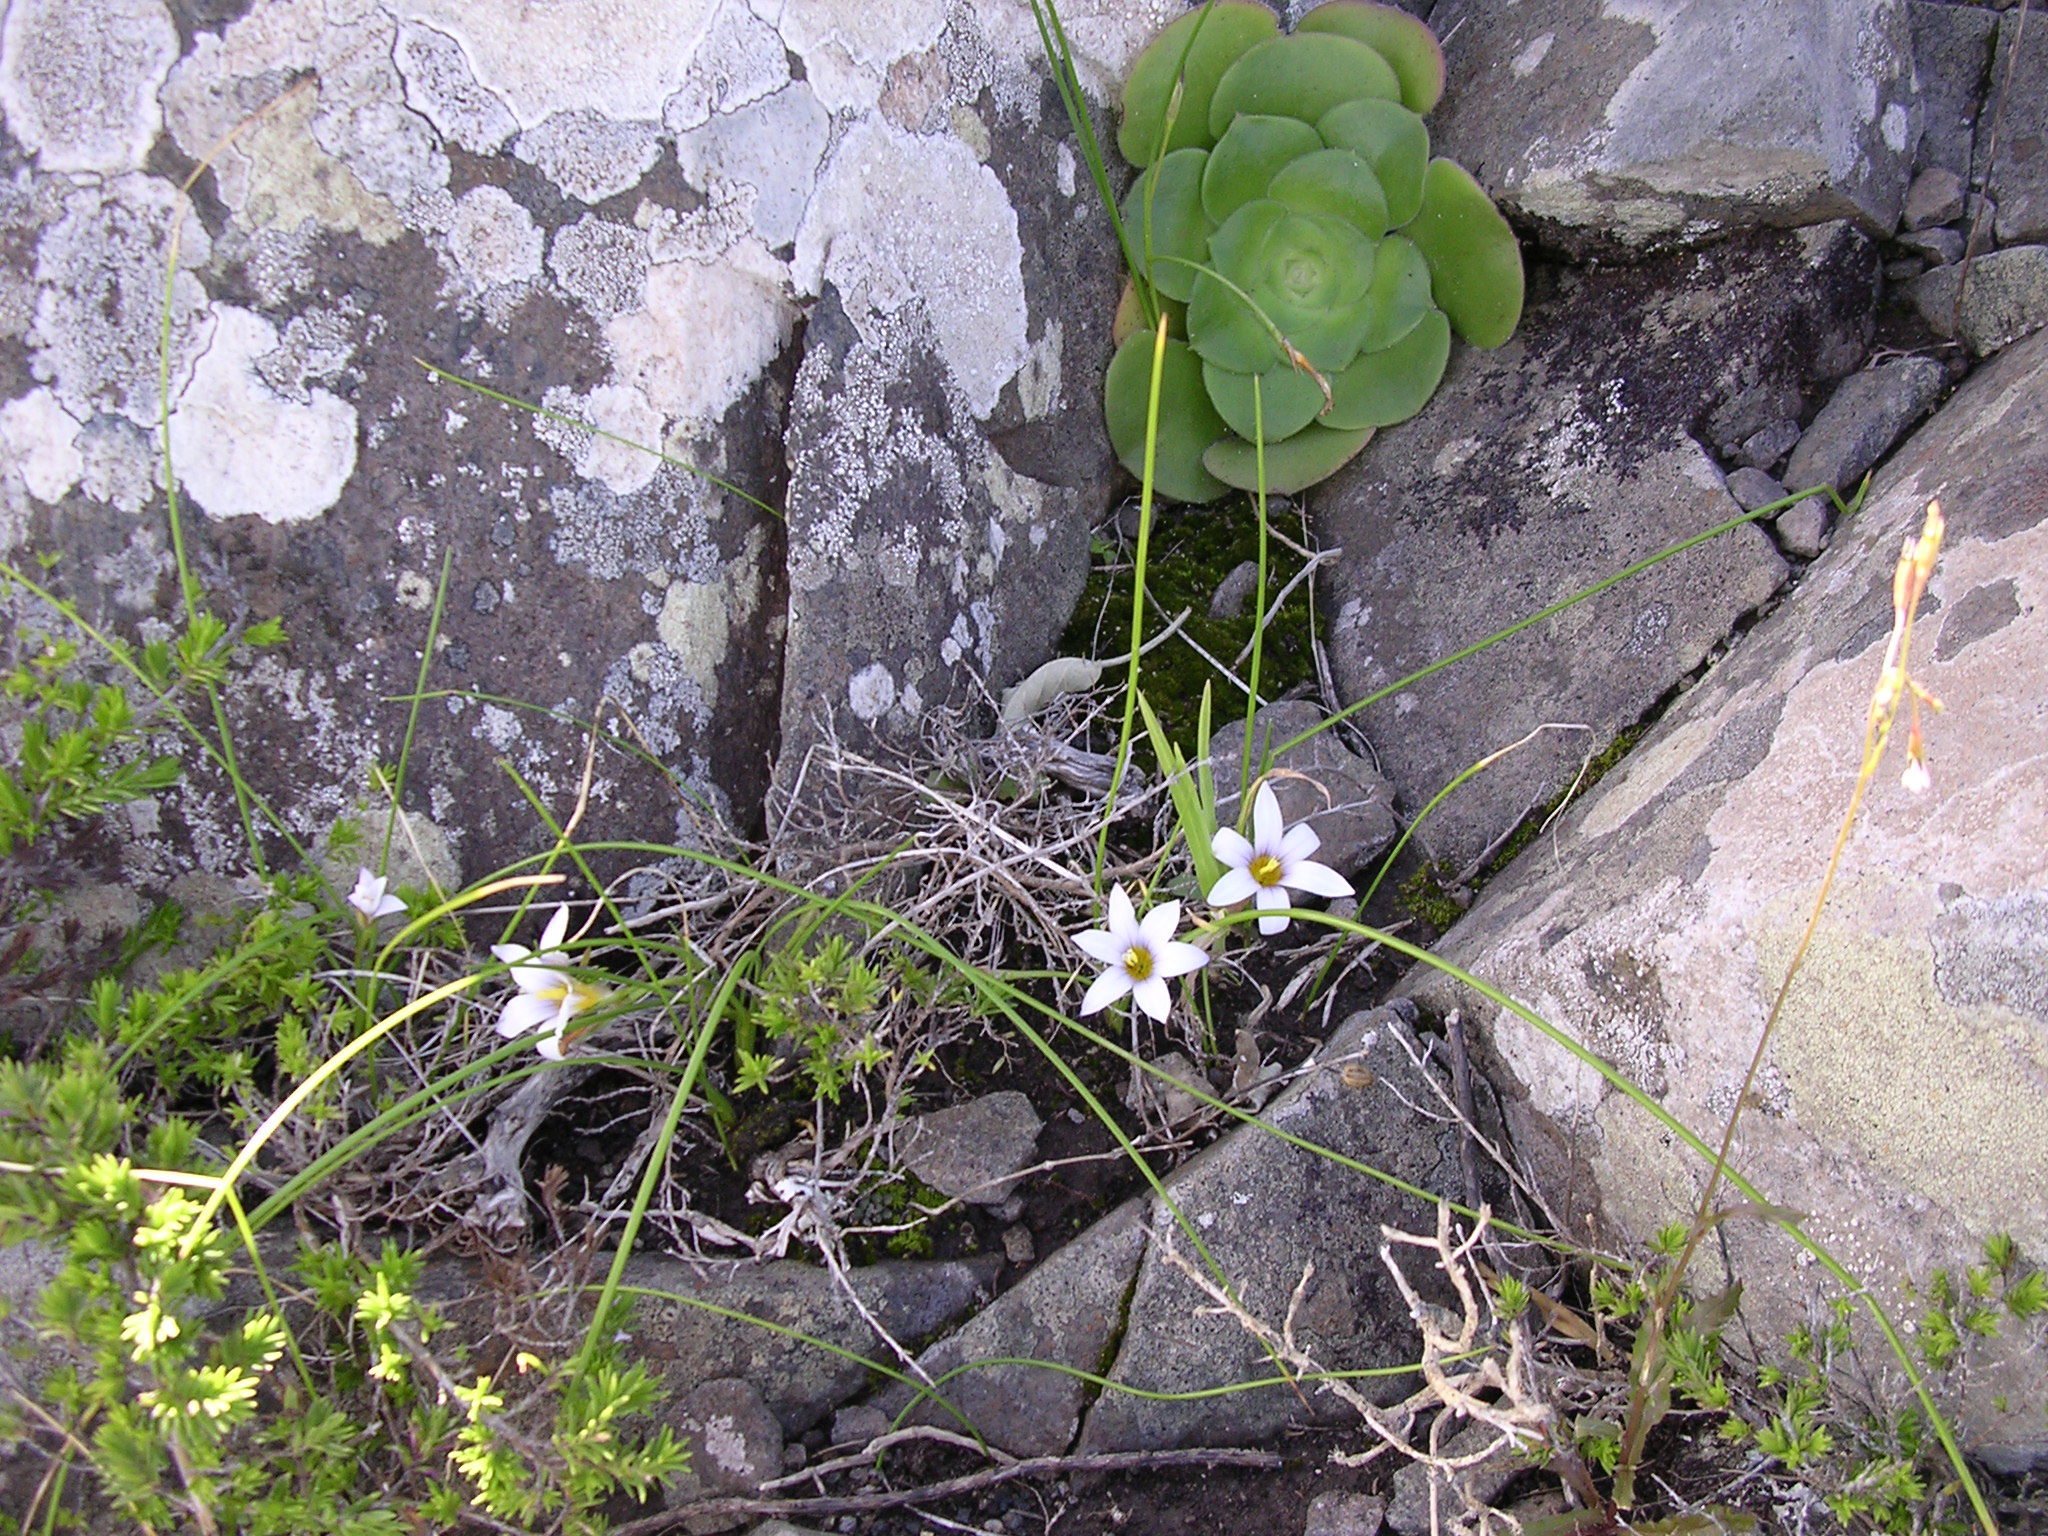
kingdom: Plantae
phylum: Tracheophyta
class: Liliopsida
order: Asparagales
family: Iridaceae
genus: Romulea
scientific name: Romulea columnae
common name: Sand-crocus
